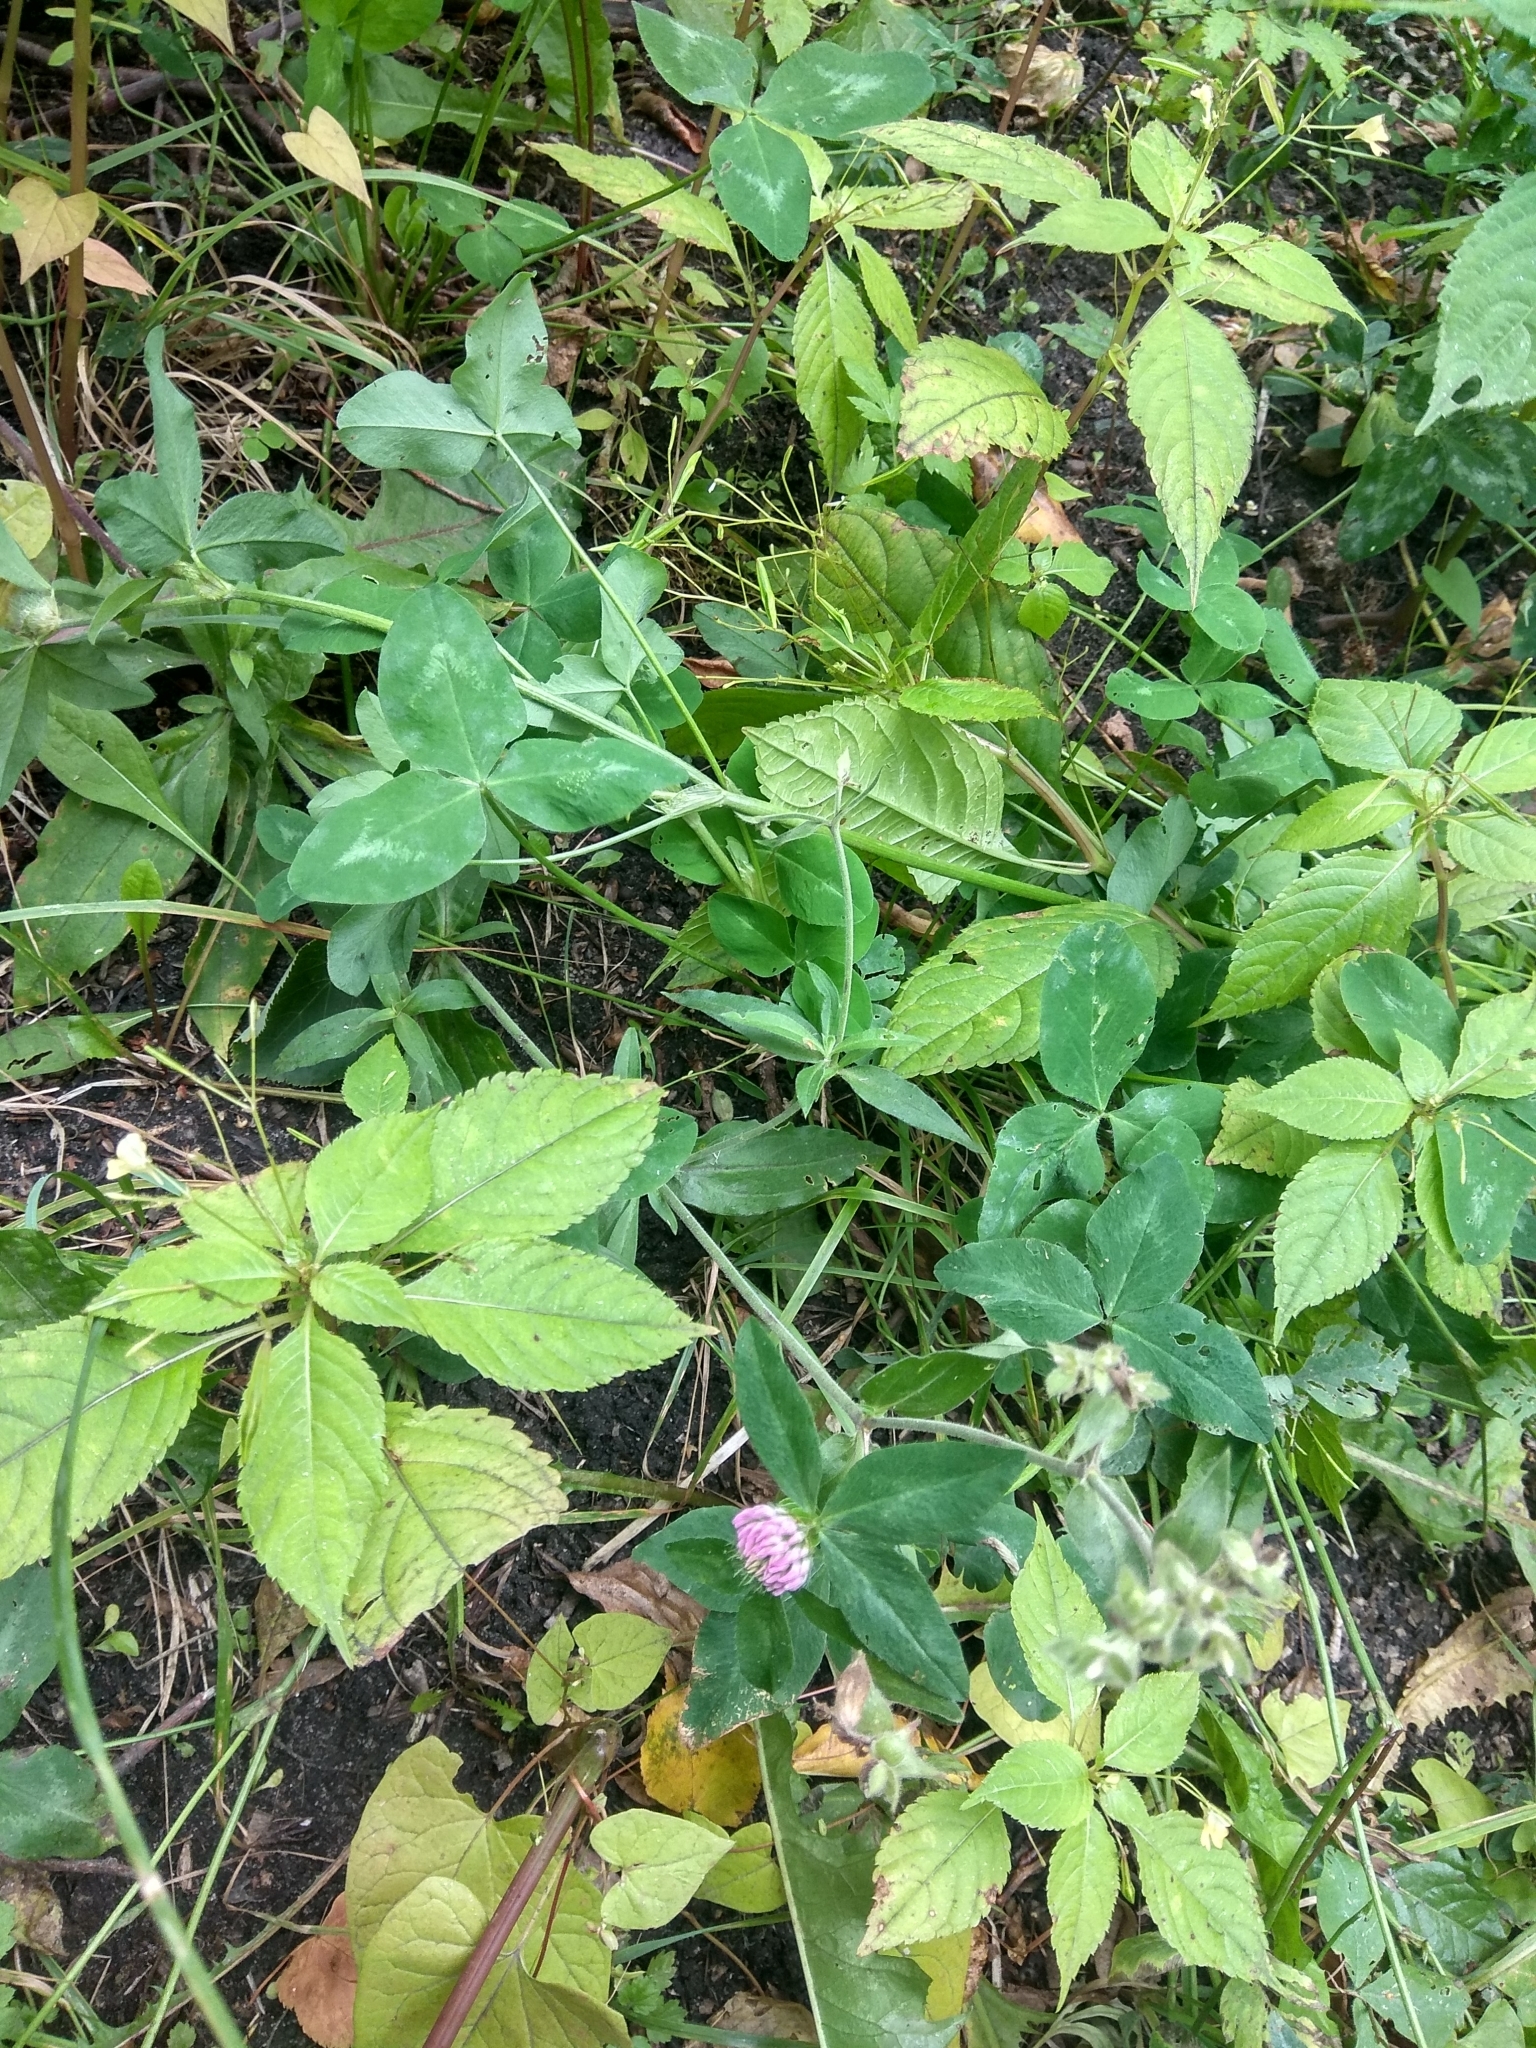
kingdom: Plantae
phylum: Tracheophyta
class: Magnoliopsida
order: Fabales
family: Fabaceae
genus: Trifolium
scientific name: Trifolium pratense
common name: Red clover
